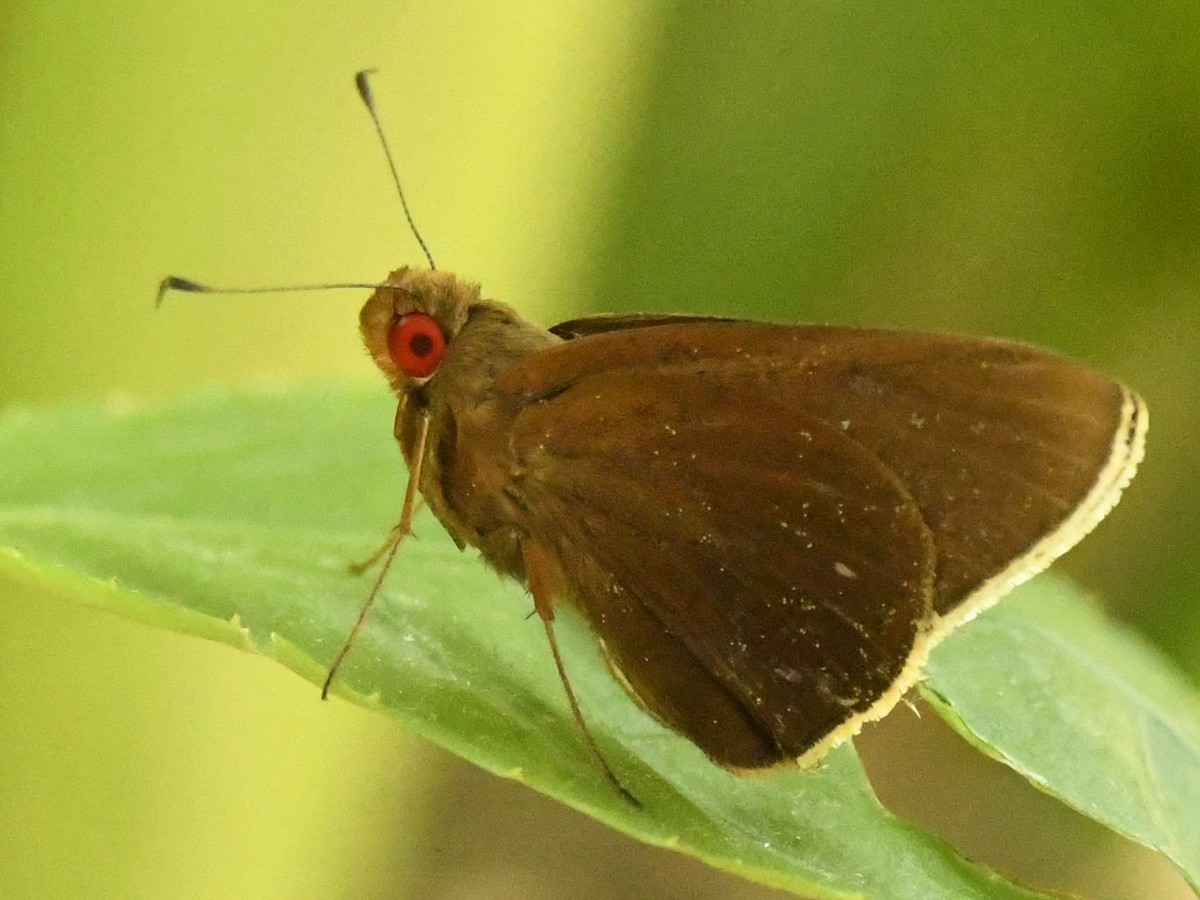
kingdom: Animalia
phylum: Arthropoda
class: Insecta
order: Lepidoptera
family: Hesperiidae
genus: Matapa
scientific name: Matapa aria
